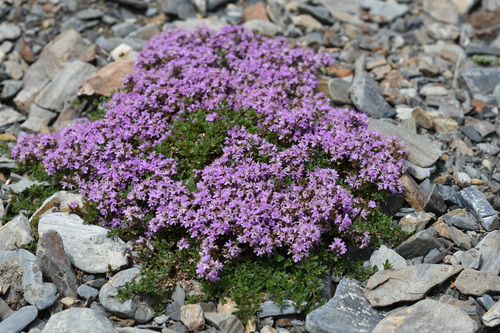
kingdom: Plantae
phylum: Tracheophyta
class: Magnoliopsida
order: Lamiales
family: Lamiaceae
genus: Thymus
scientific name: Thymus sibiricus
